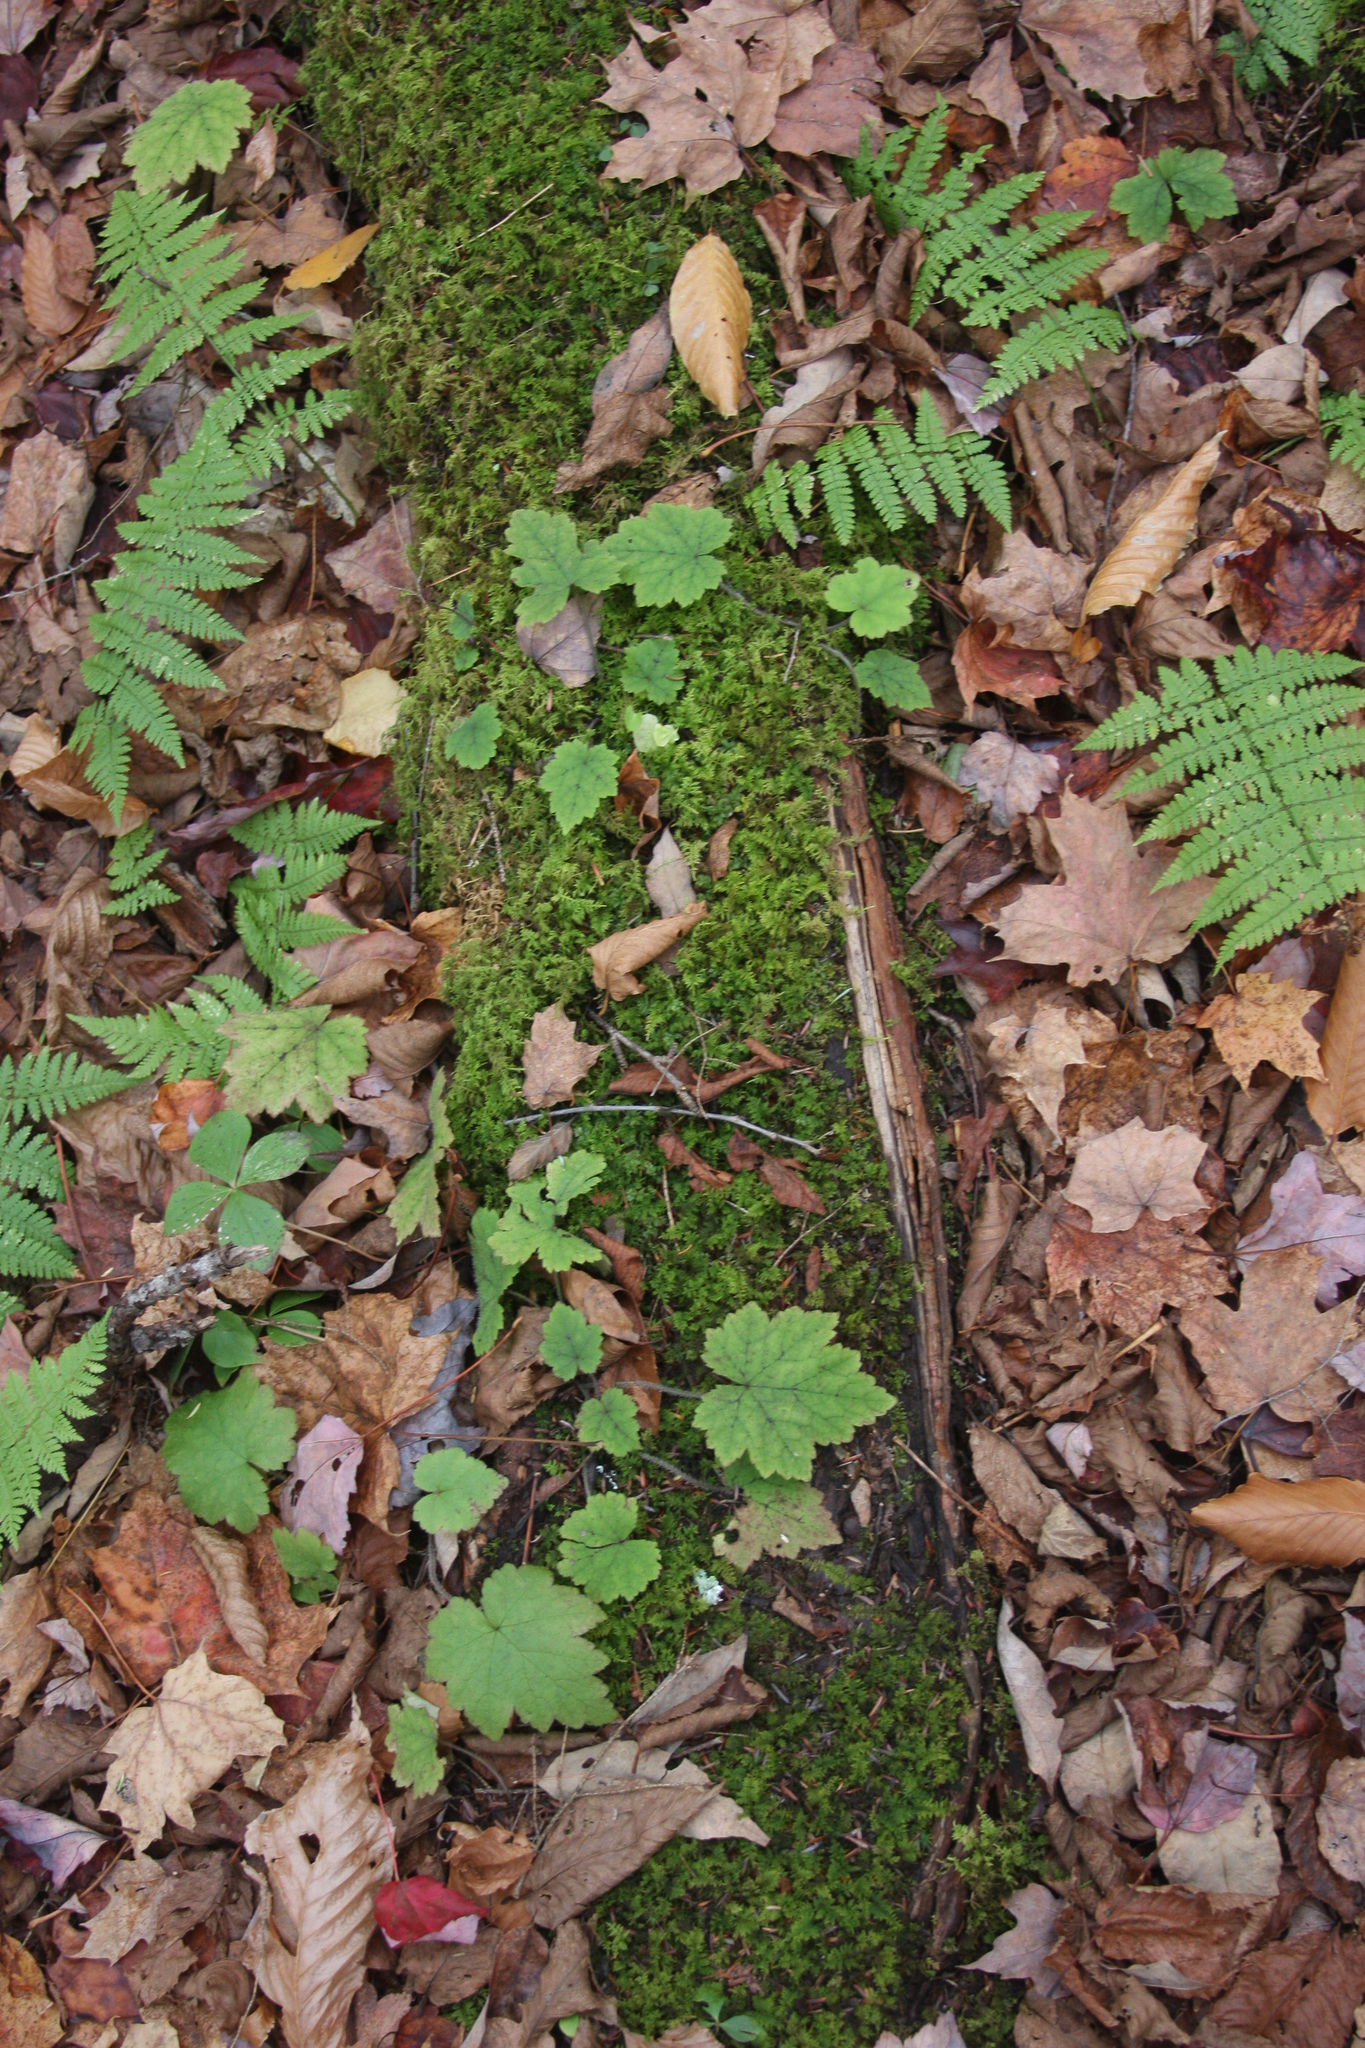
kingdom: Plantae
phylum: Tracheophyta
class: Magnoliopsida
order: Saxifragales
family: Saxifragaceae
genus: Tiarella
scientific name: Tiarella stolonifera
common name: Stoloniferous foamflower
